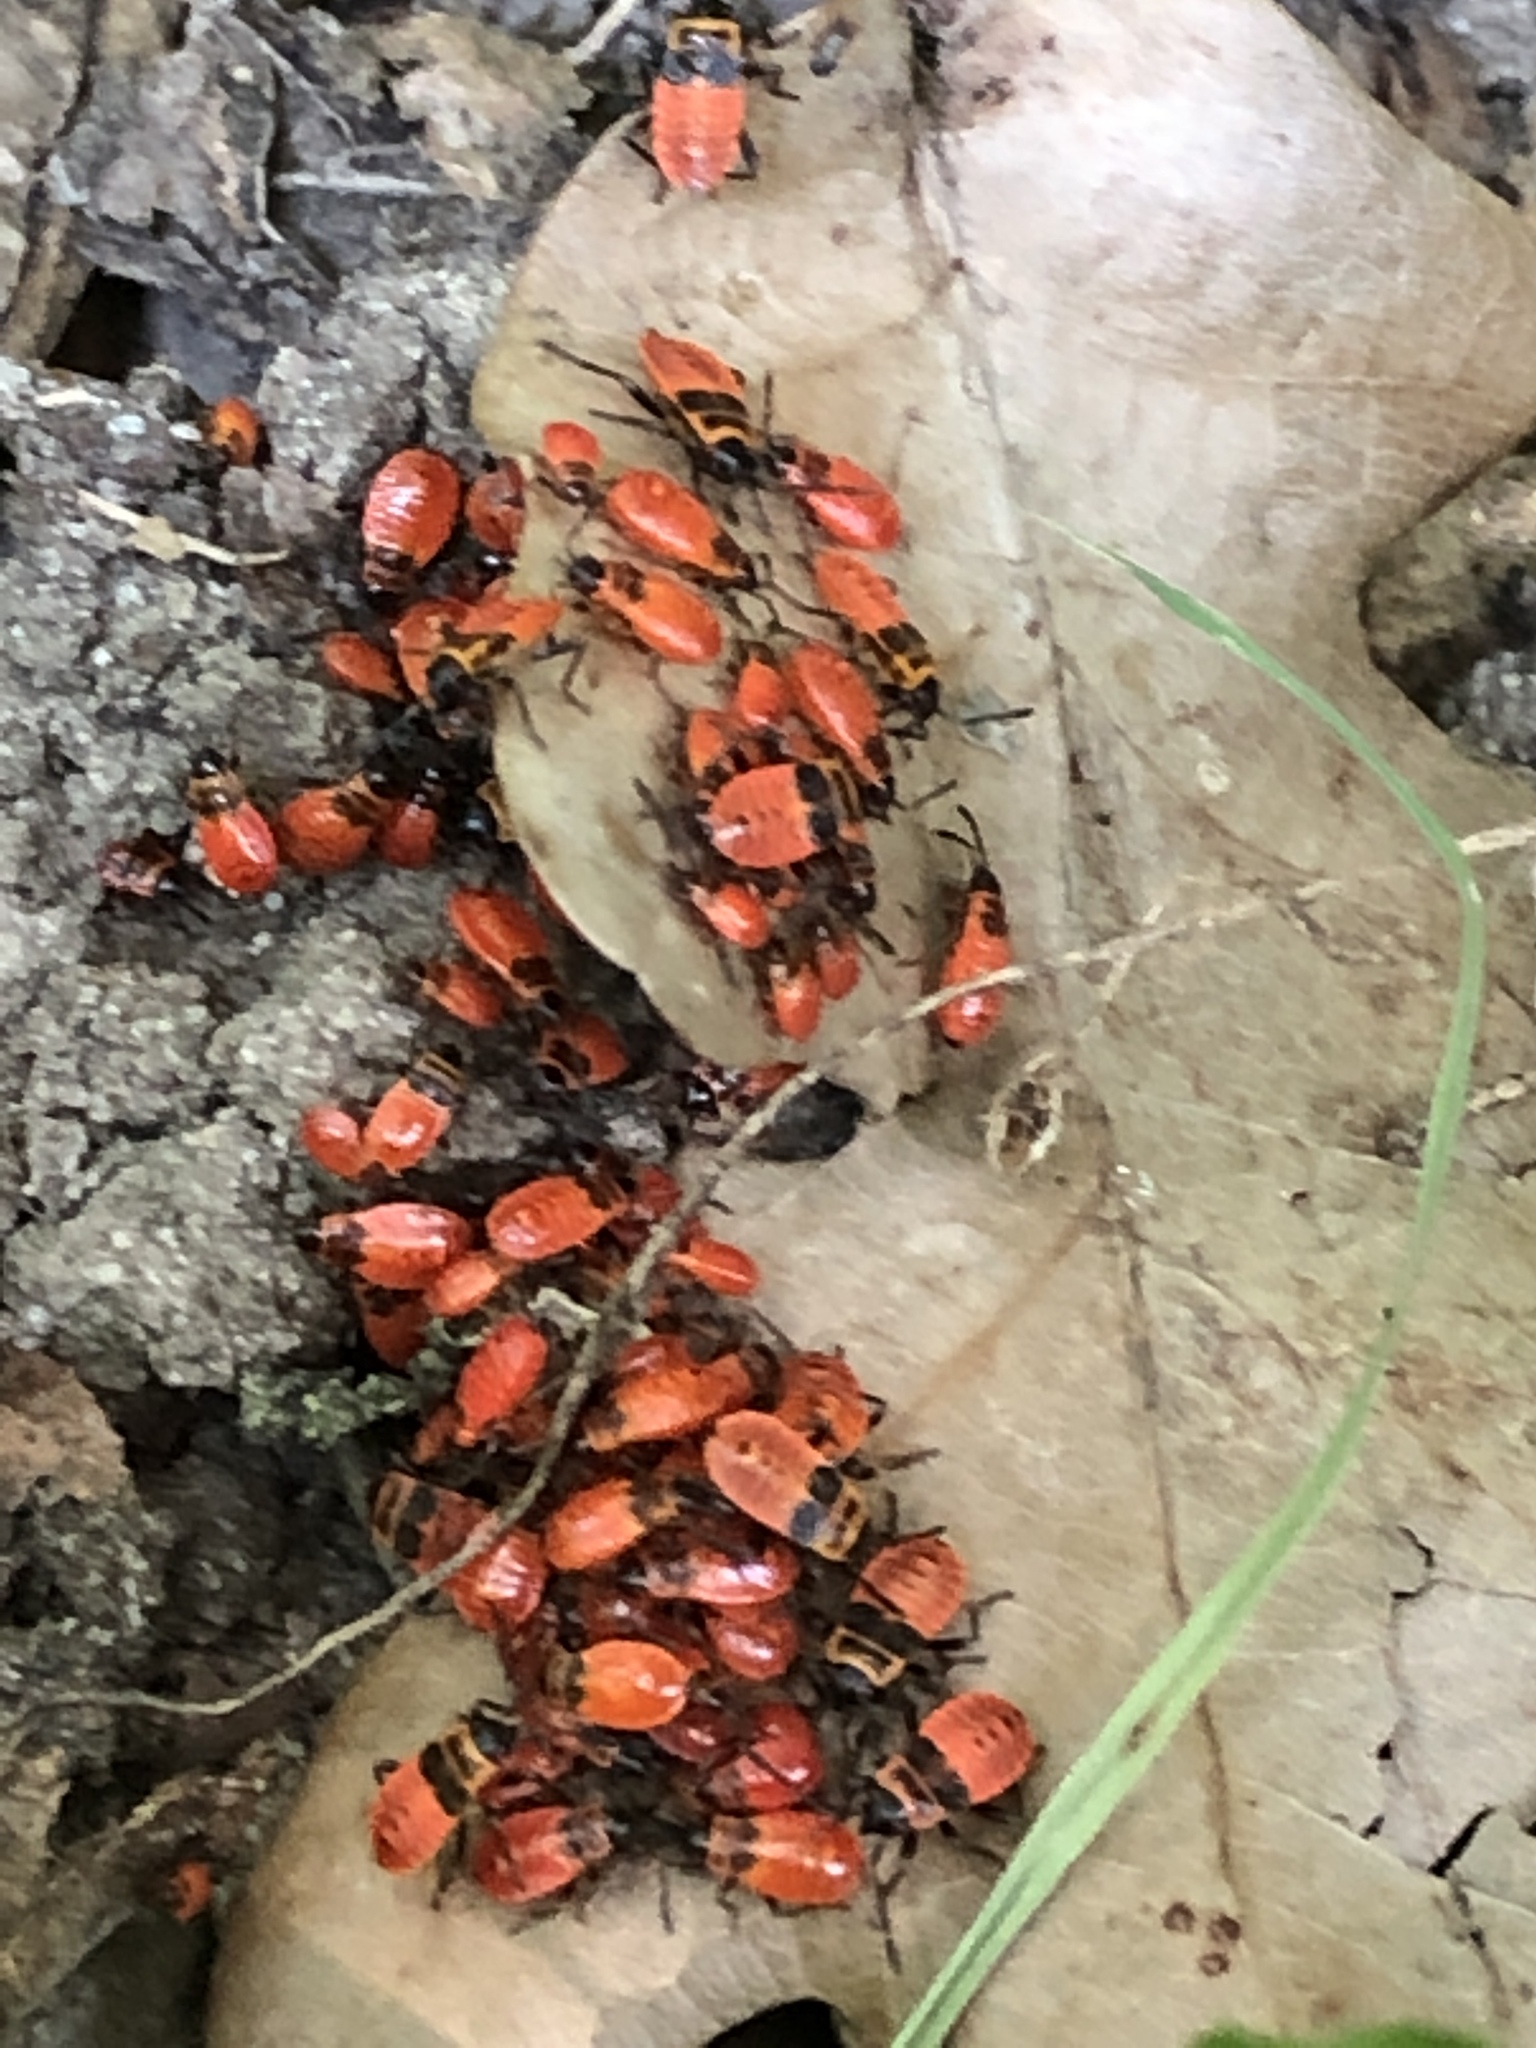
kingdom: Animalia
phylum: Arthropoda
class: Insecta
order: Hemiptera
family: Pyrrhocoridae
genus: Pyrrhocoris
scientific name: Pyrrhocoris apterus
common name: Firebug
